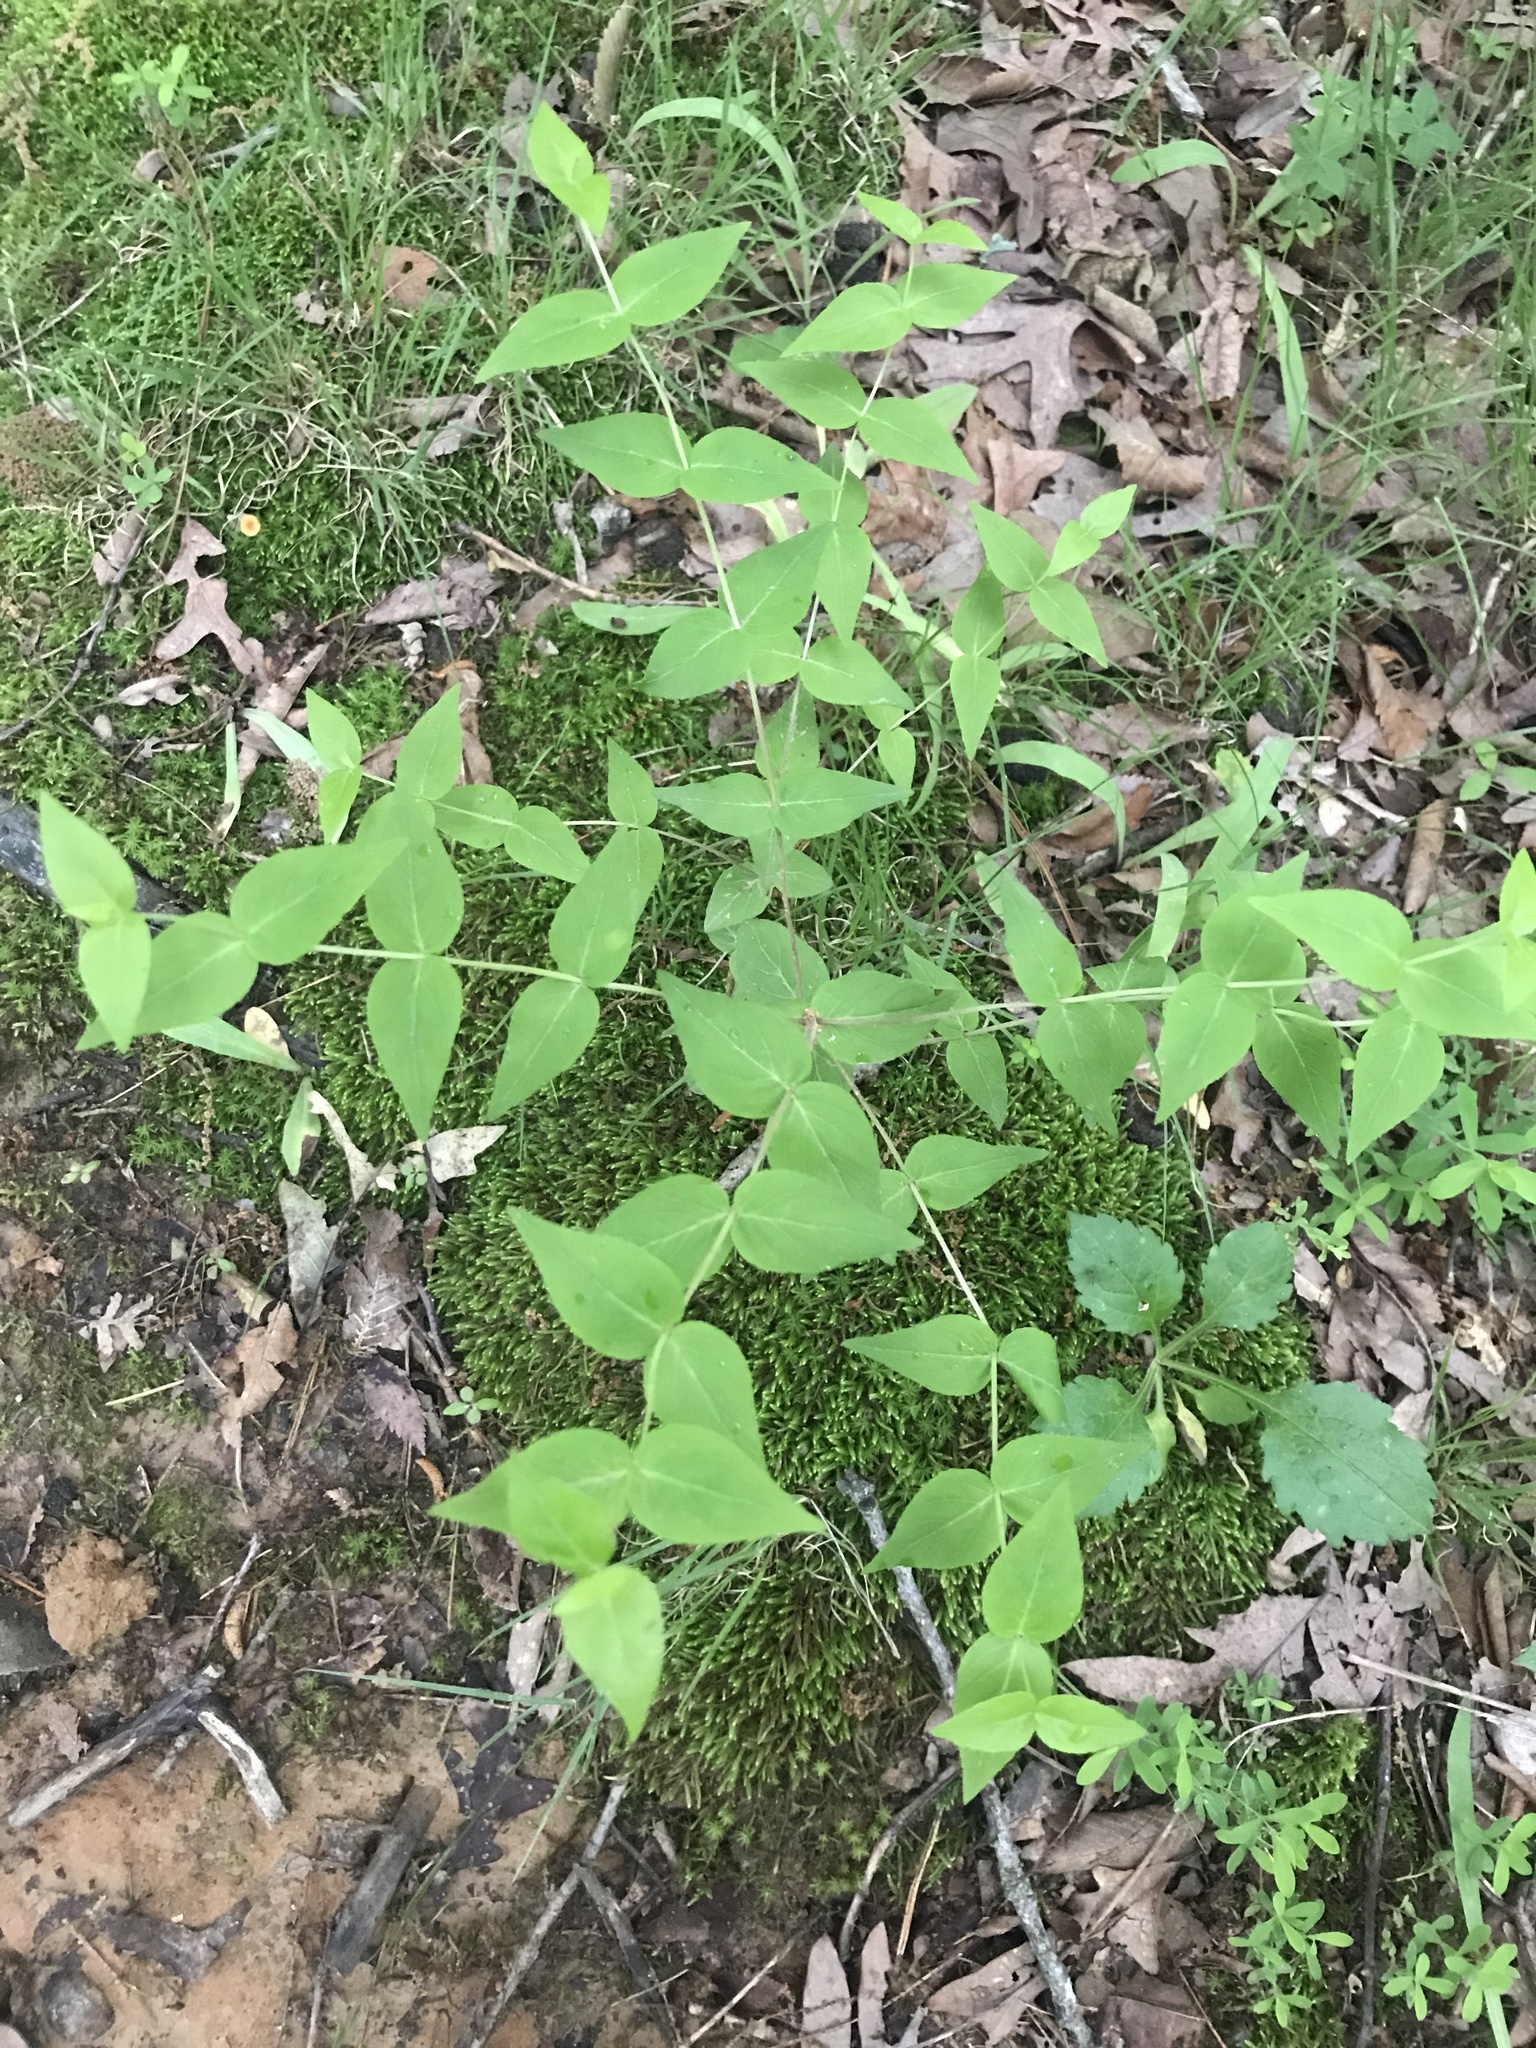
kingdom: Plantae
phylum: Tracheophyta
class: Magnoliopsida
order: Lamiales
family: Lamiaceae
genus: Cunila
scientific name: Cunila origanoides
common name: American dittany
